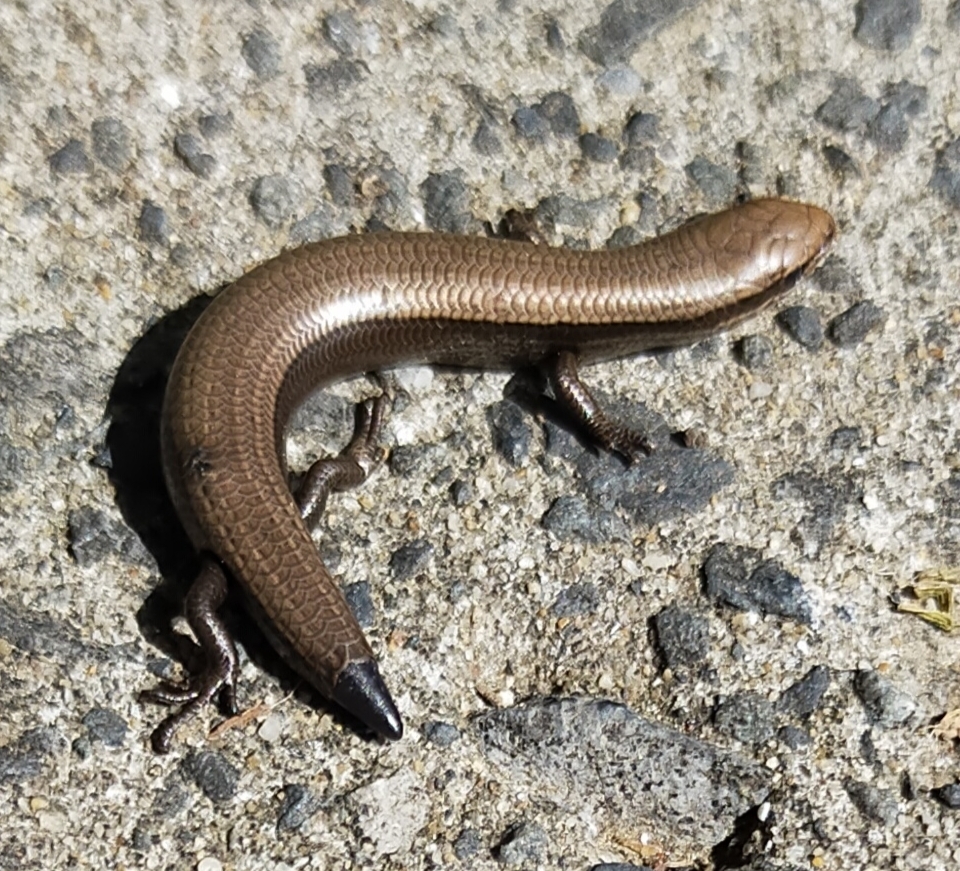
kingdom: Animalia
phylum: Chordata
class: Squamata
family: Scincidae
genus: Ablepharus
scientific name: Ablepharus kitaibelii
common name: Juniper skink
